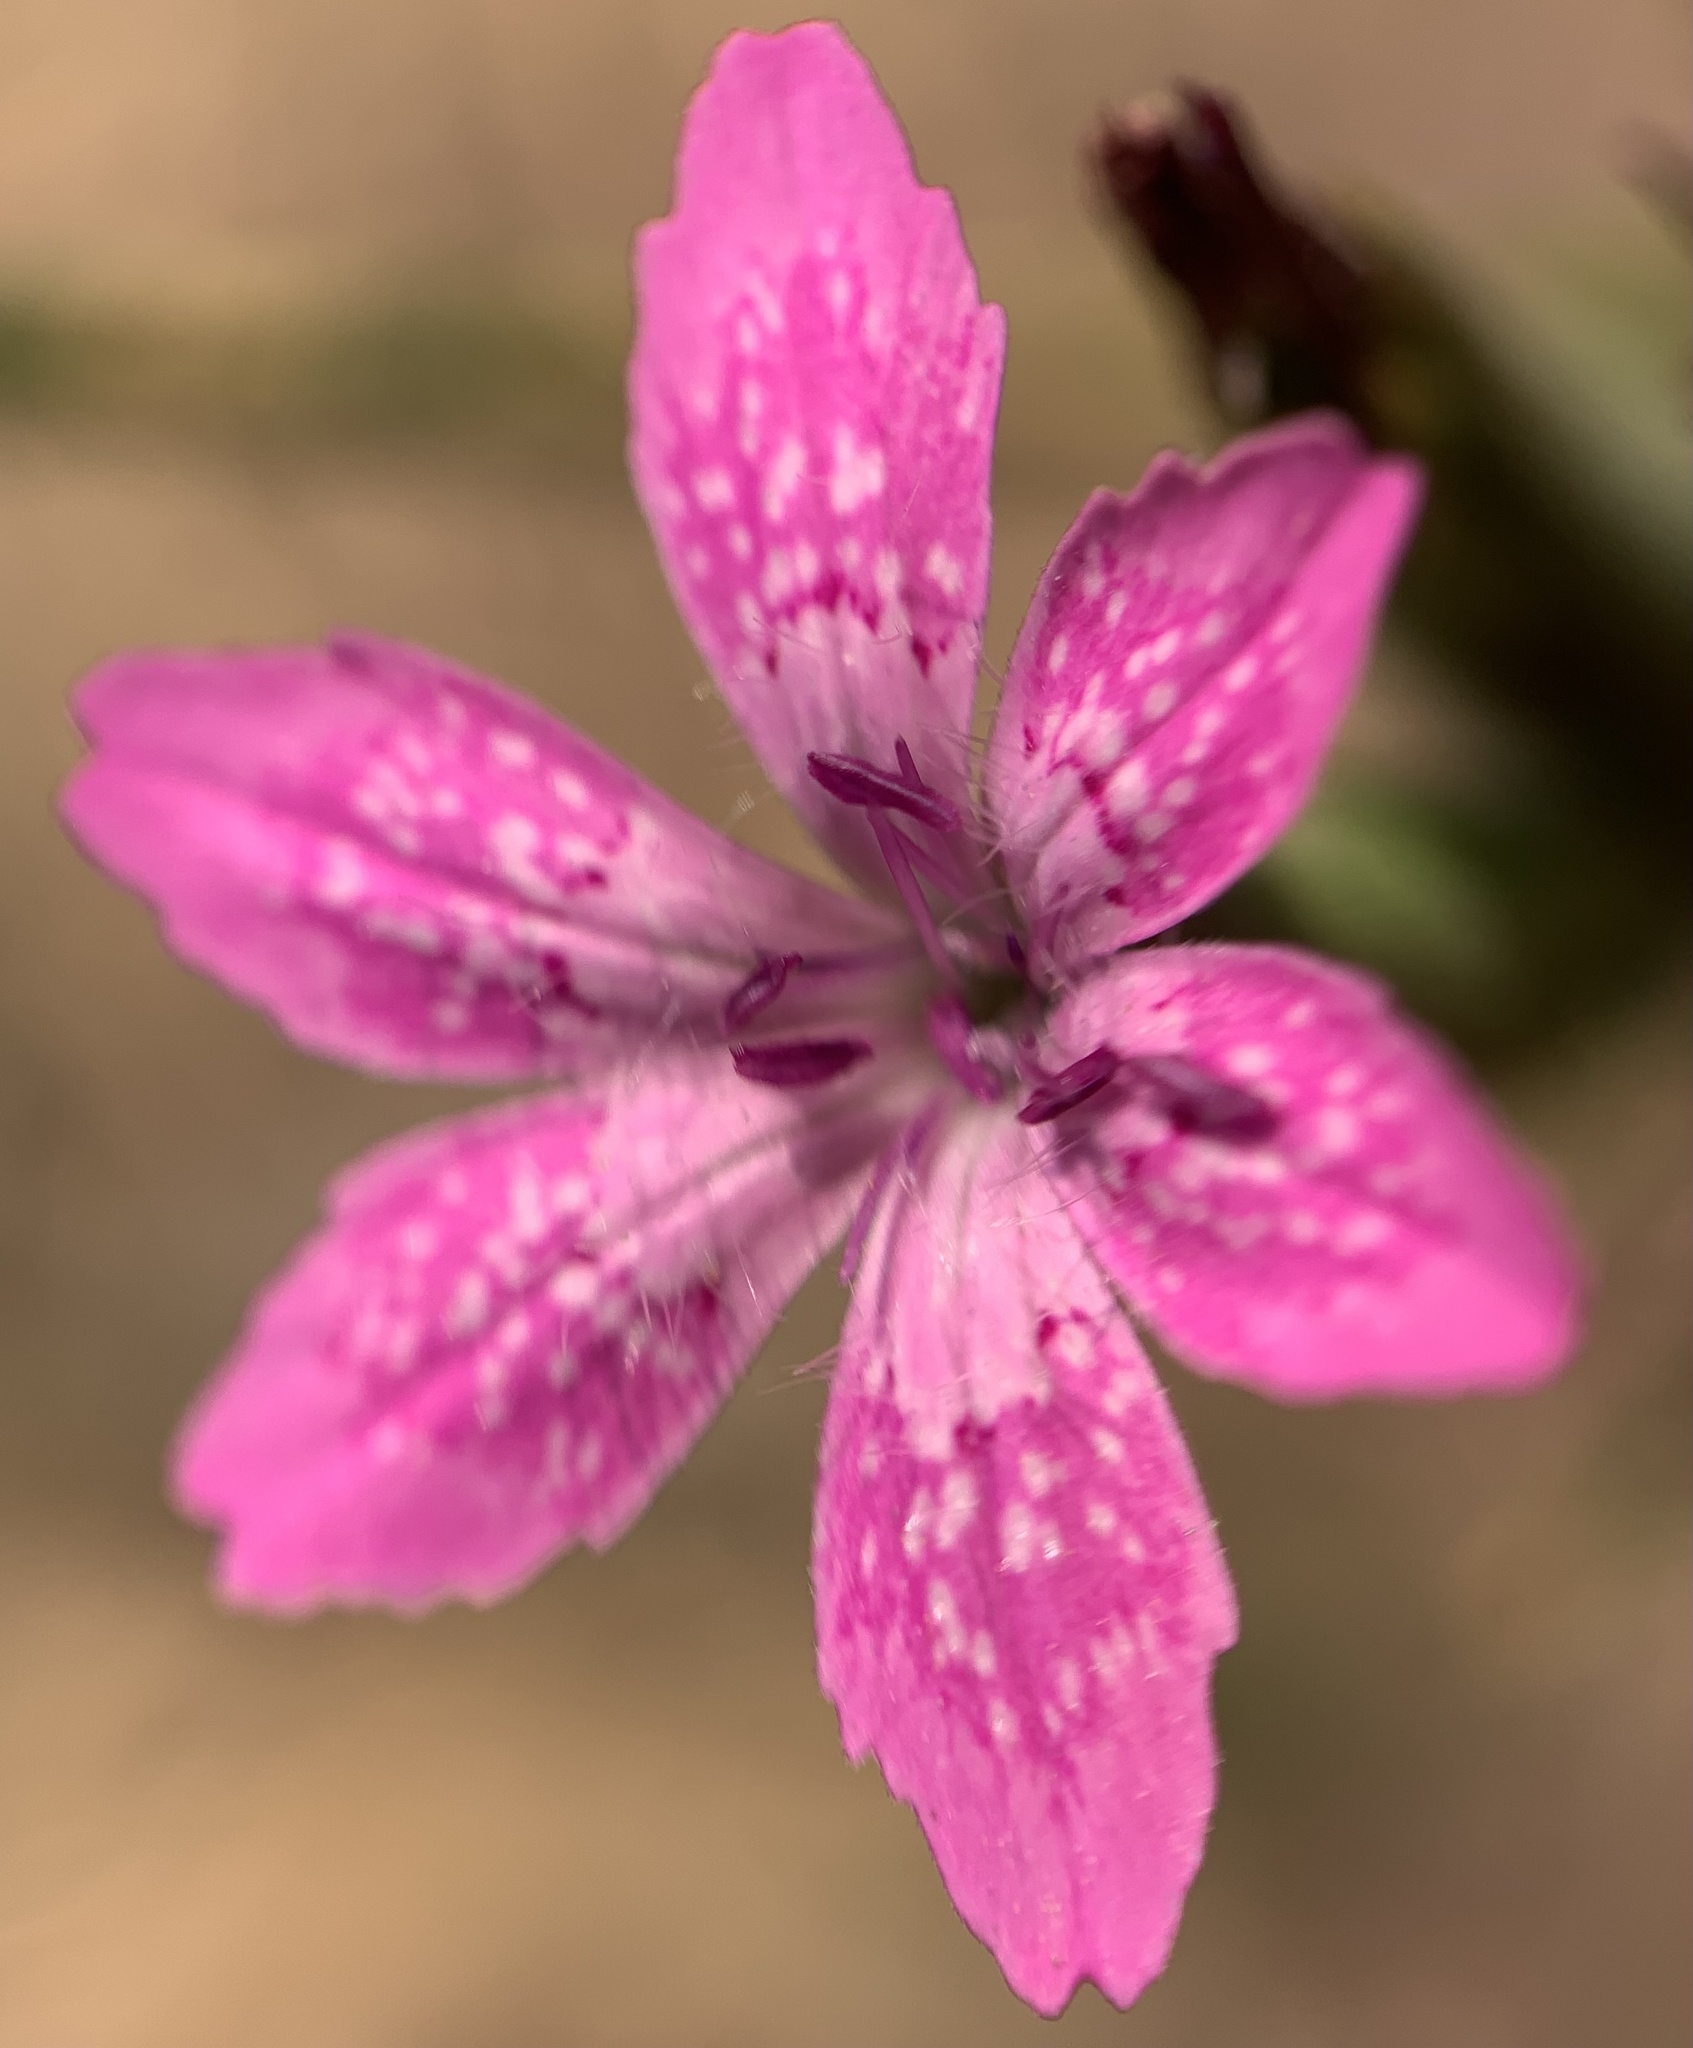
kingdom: Plantae
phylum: Tracheophyta
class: Magnoliopsida
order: Caryophyllales
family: Caryophyllaceae
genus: Dianthus
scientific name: Dianthus armeria
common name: Deptford pink
